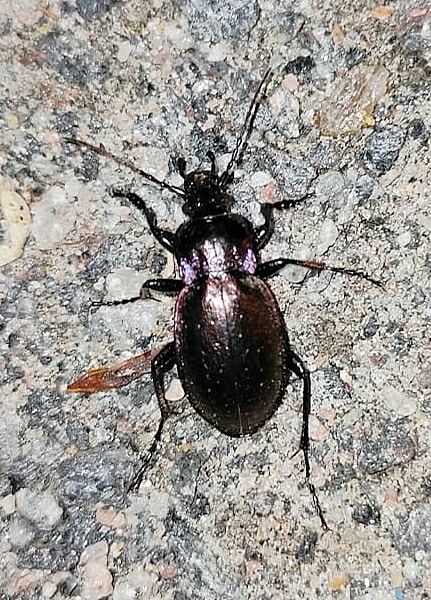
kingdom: Animalia
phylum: Arthropoda
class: Insecta
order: Coleoptera
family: Carabidae
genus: Carabus
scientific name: Carabus nemoralis
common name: European ground beetle
